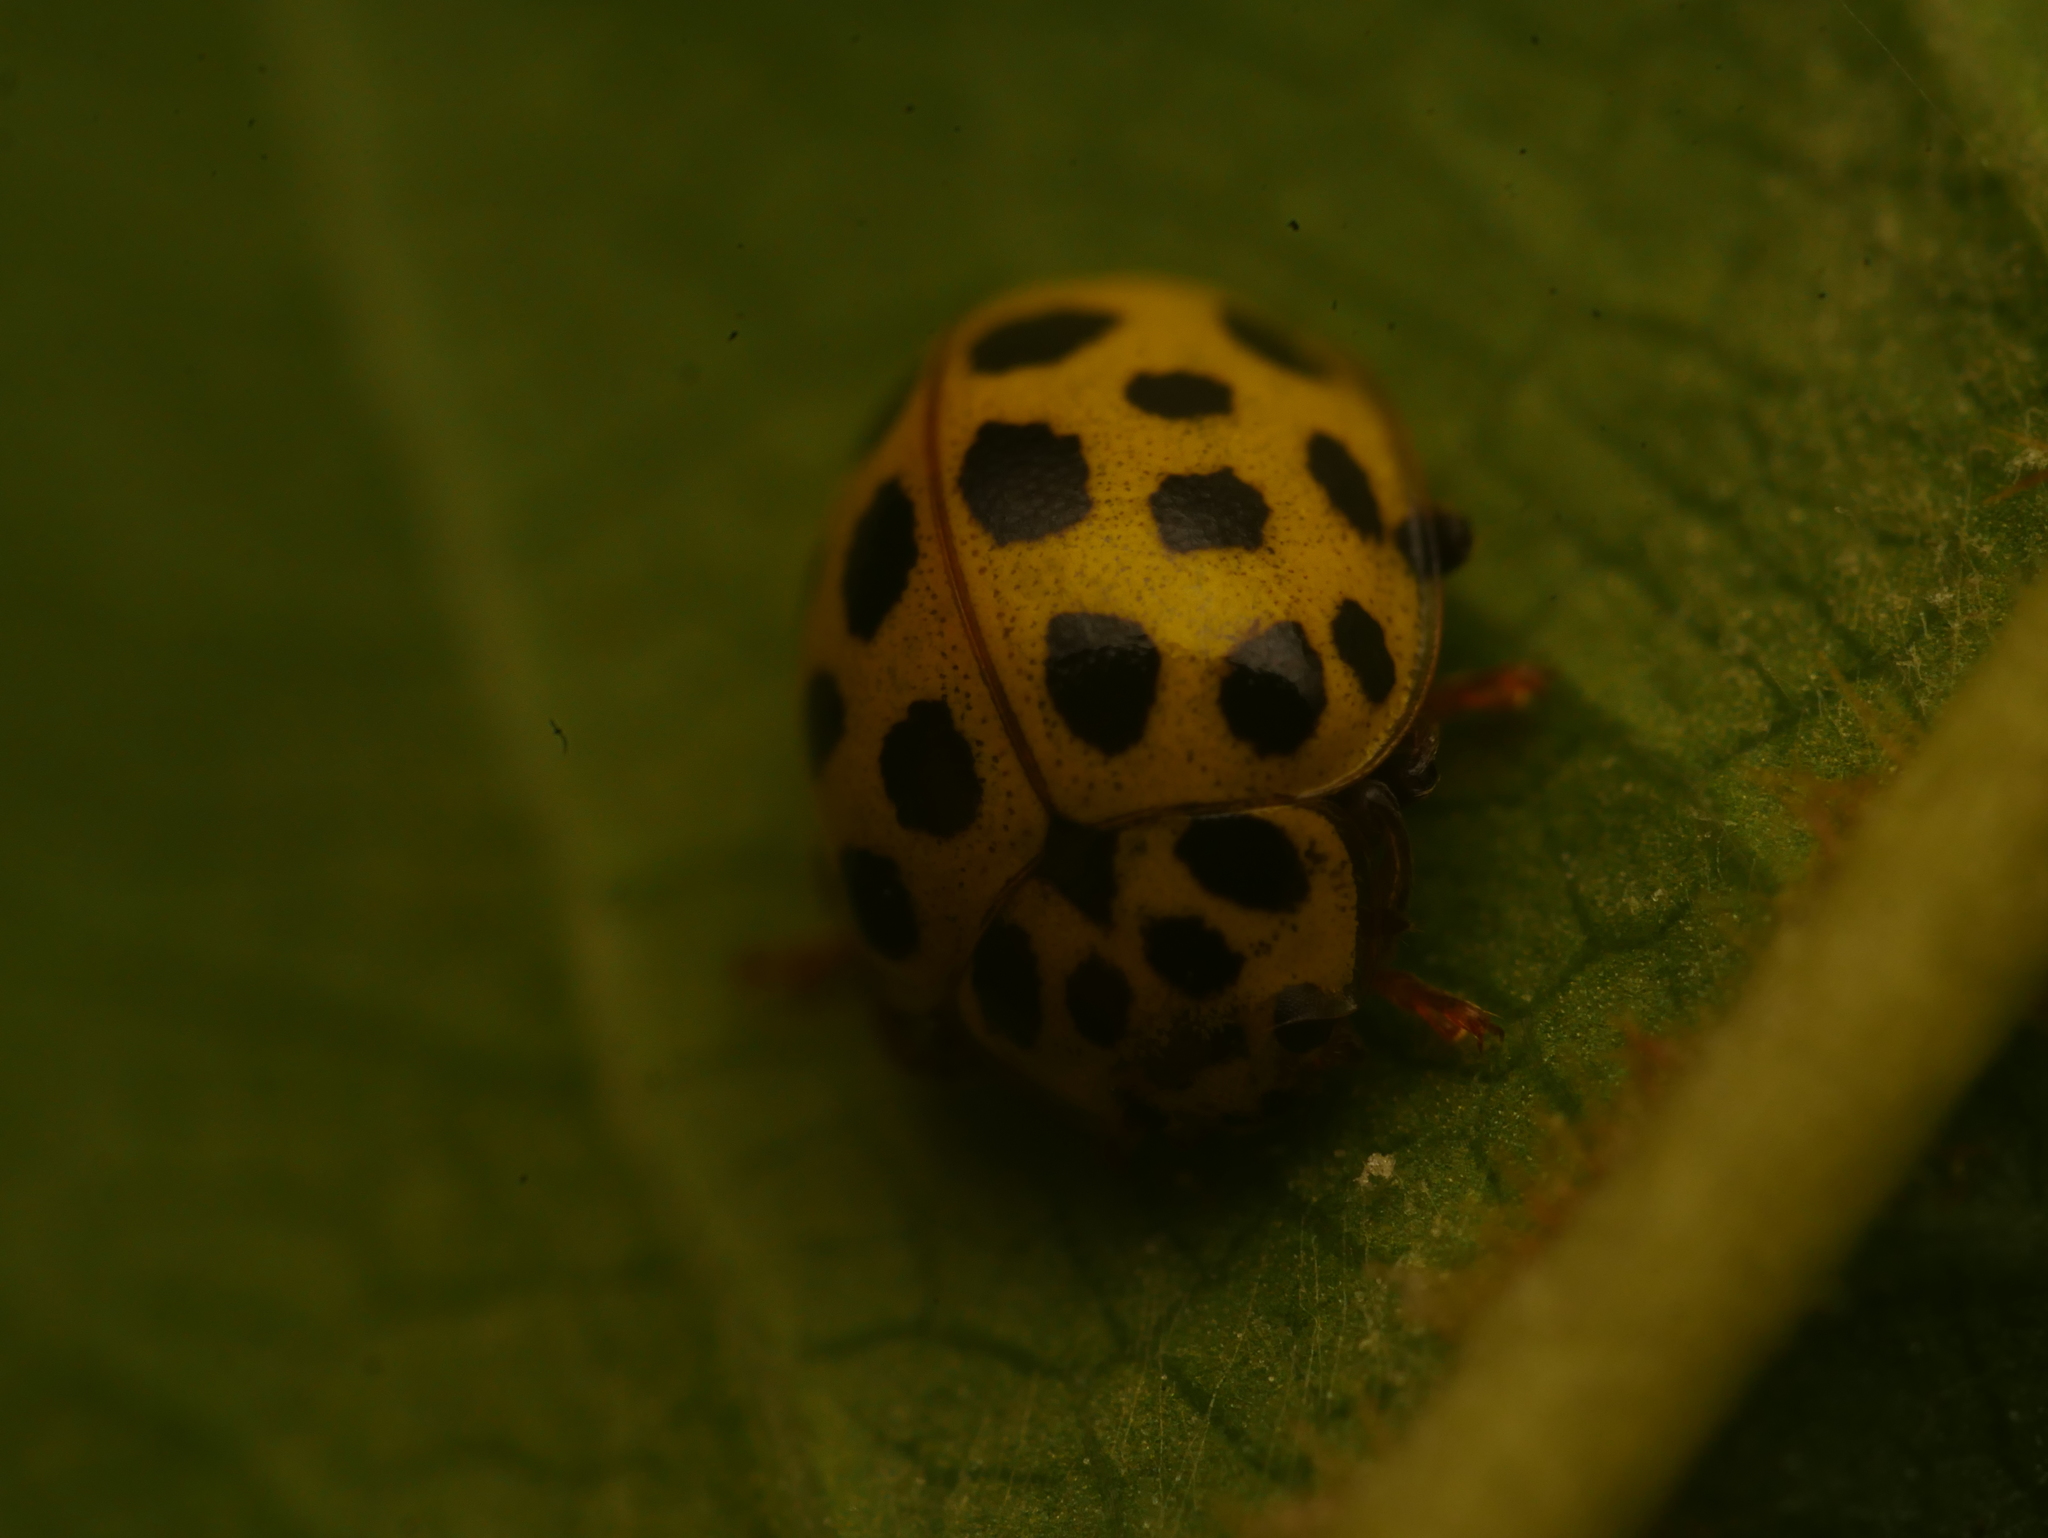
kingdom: Animalia
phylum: Arthropoda
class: Insecta
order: Coleoptera
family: Coccinellidae
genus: Psyllobora
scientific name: Psyllobora vigintiduopunctata
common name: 22-spot ladybird
